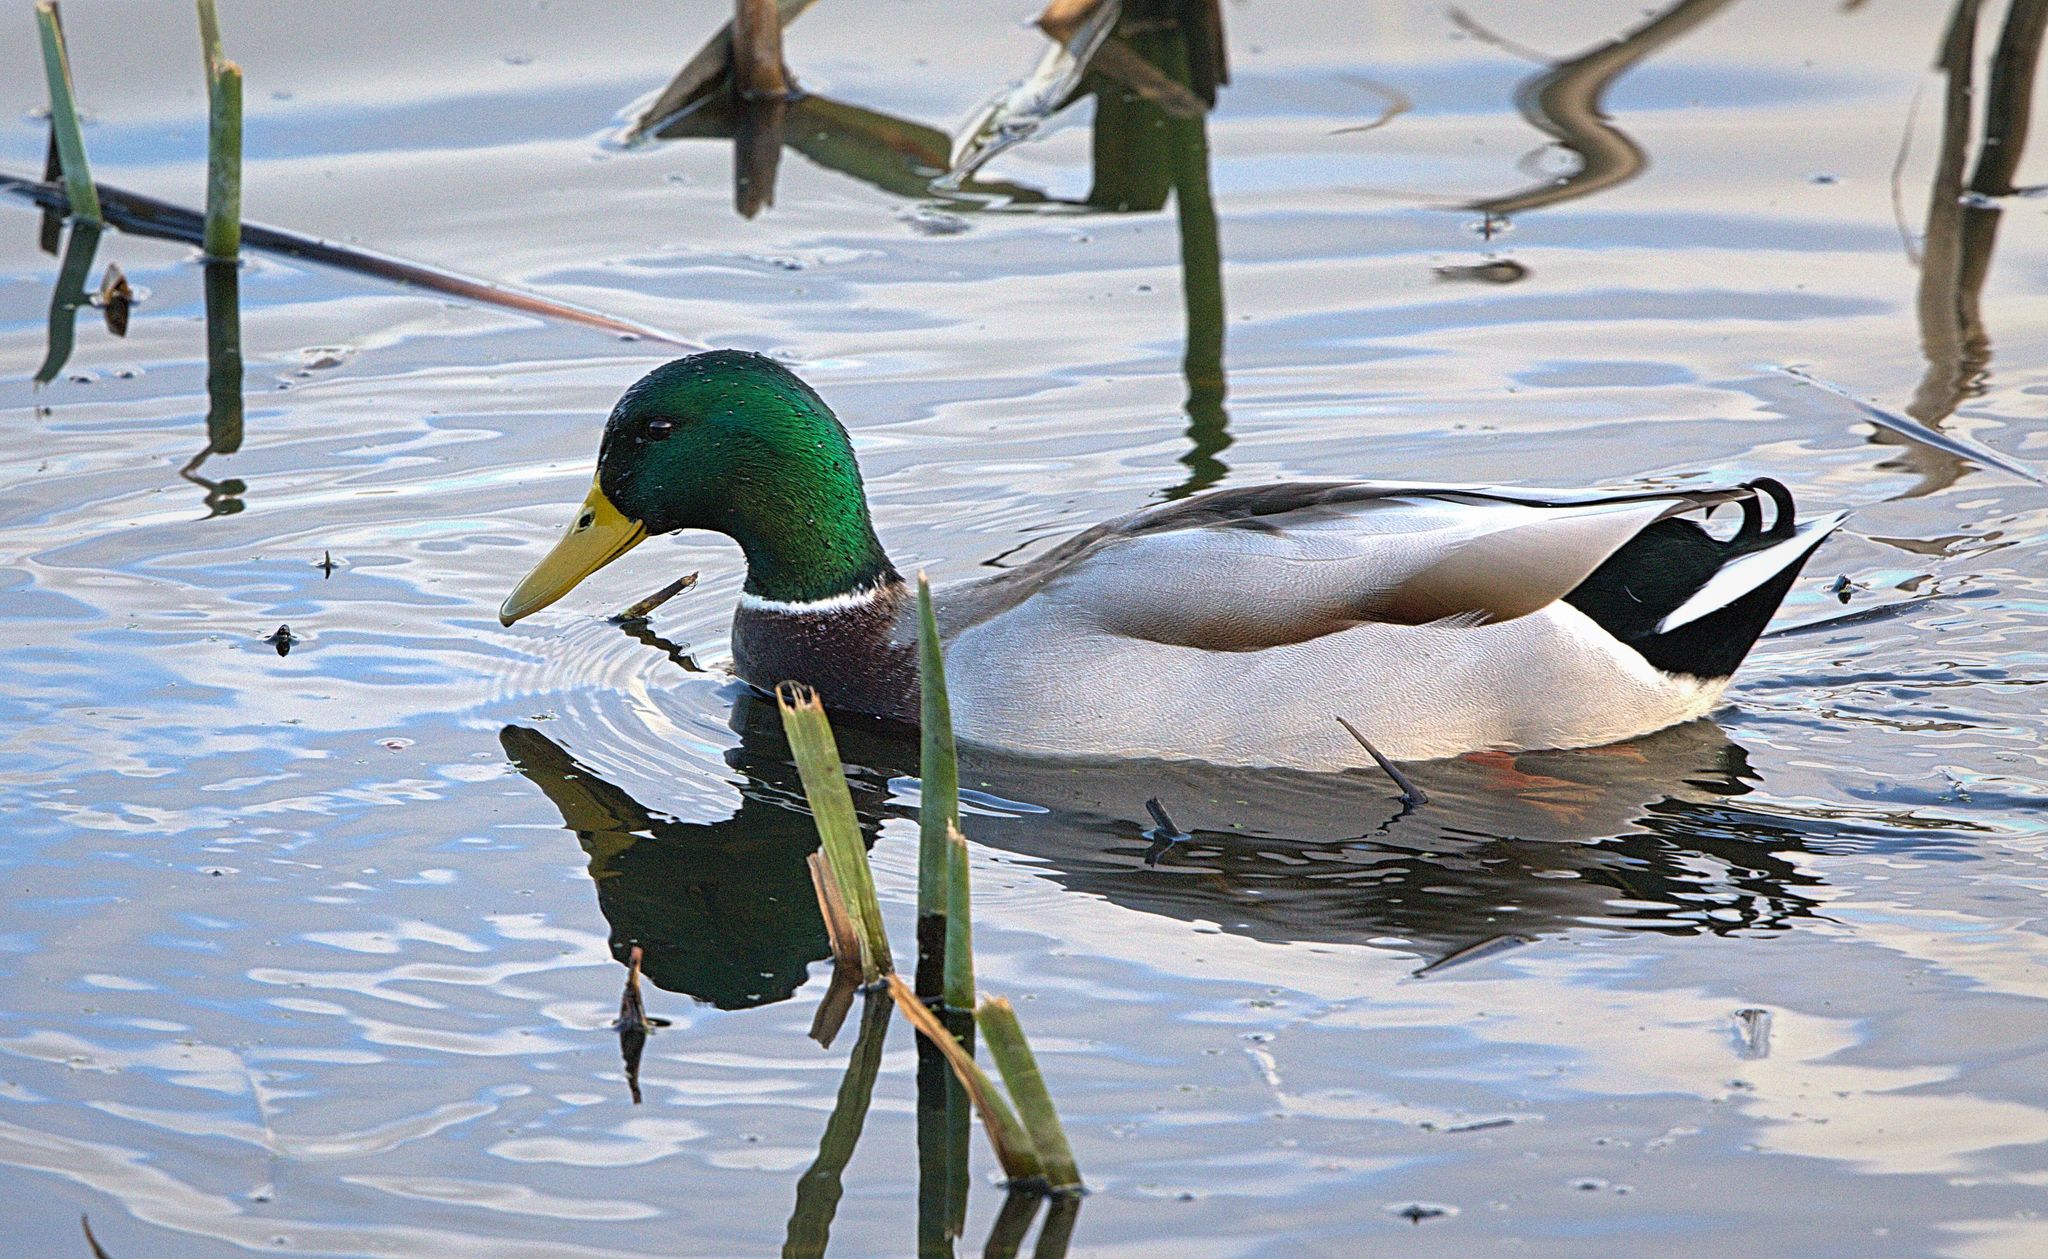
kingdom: Animalia
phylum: Chordata
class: Aves
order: Anseriformes
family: Anatidae
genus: Anas
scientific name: Anas platyrhynchos
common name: Mallard
